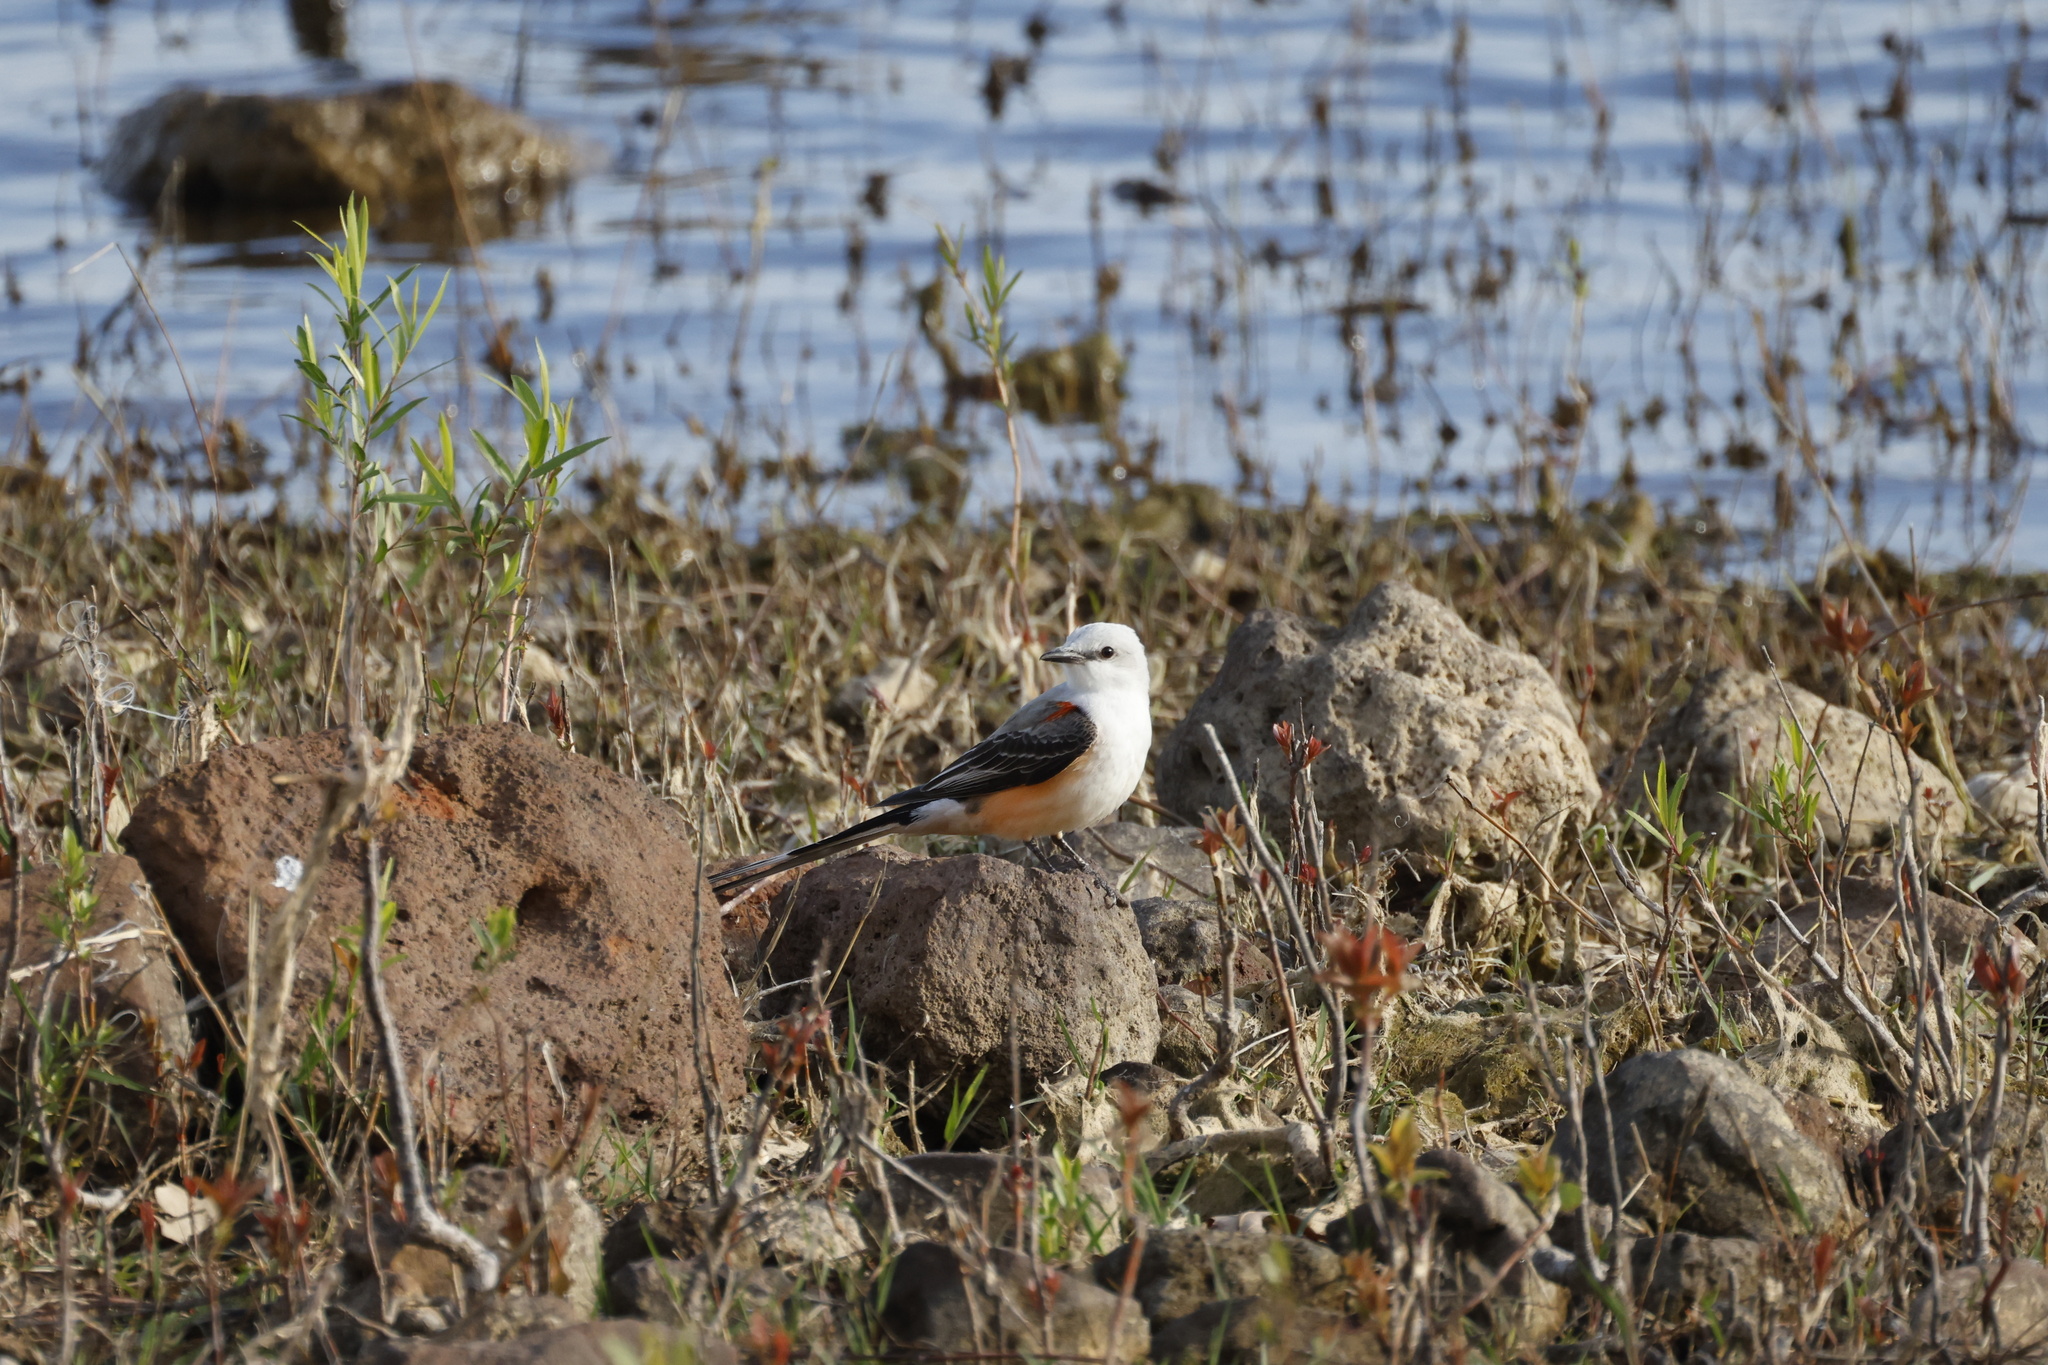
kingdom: Animalia
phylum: Chordata
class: Aves
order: Passeriformes
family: Tyrannidae
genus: Tyrannus
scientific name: Tyrannus forficatus
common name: Scissor-tailed flycatcher
